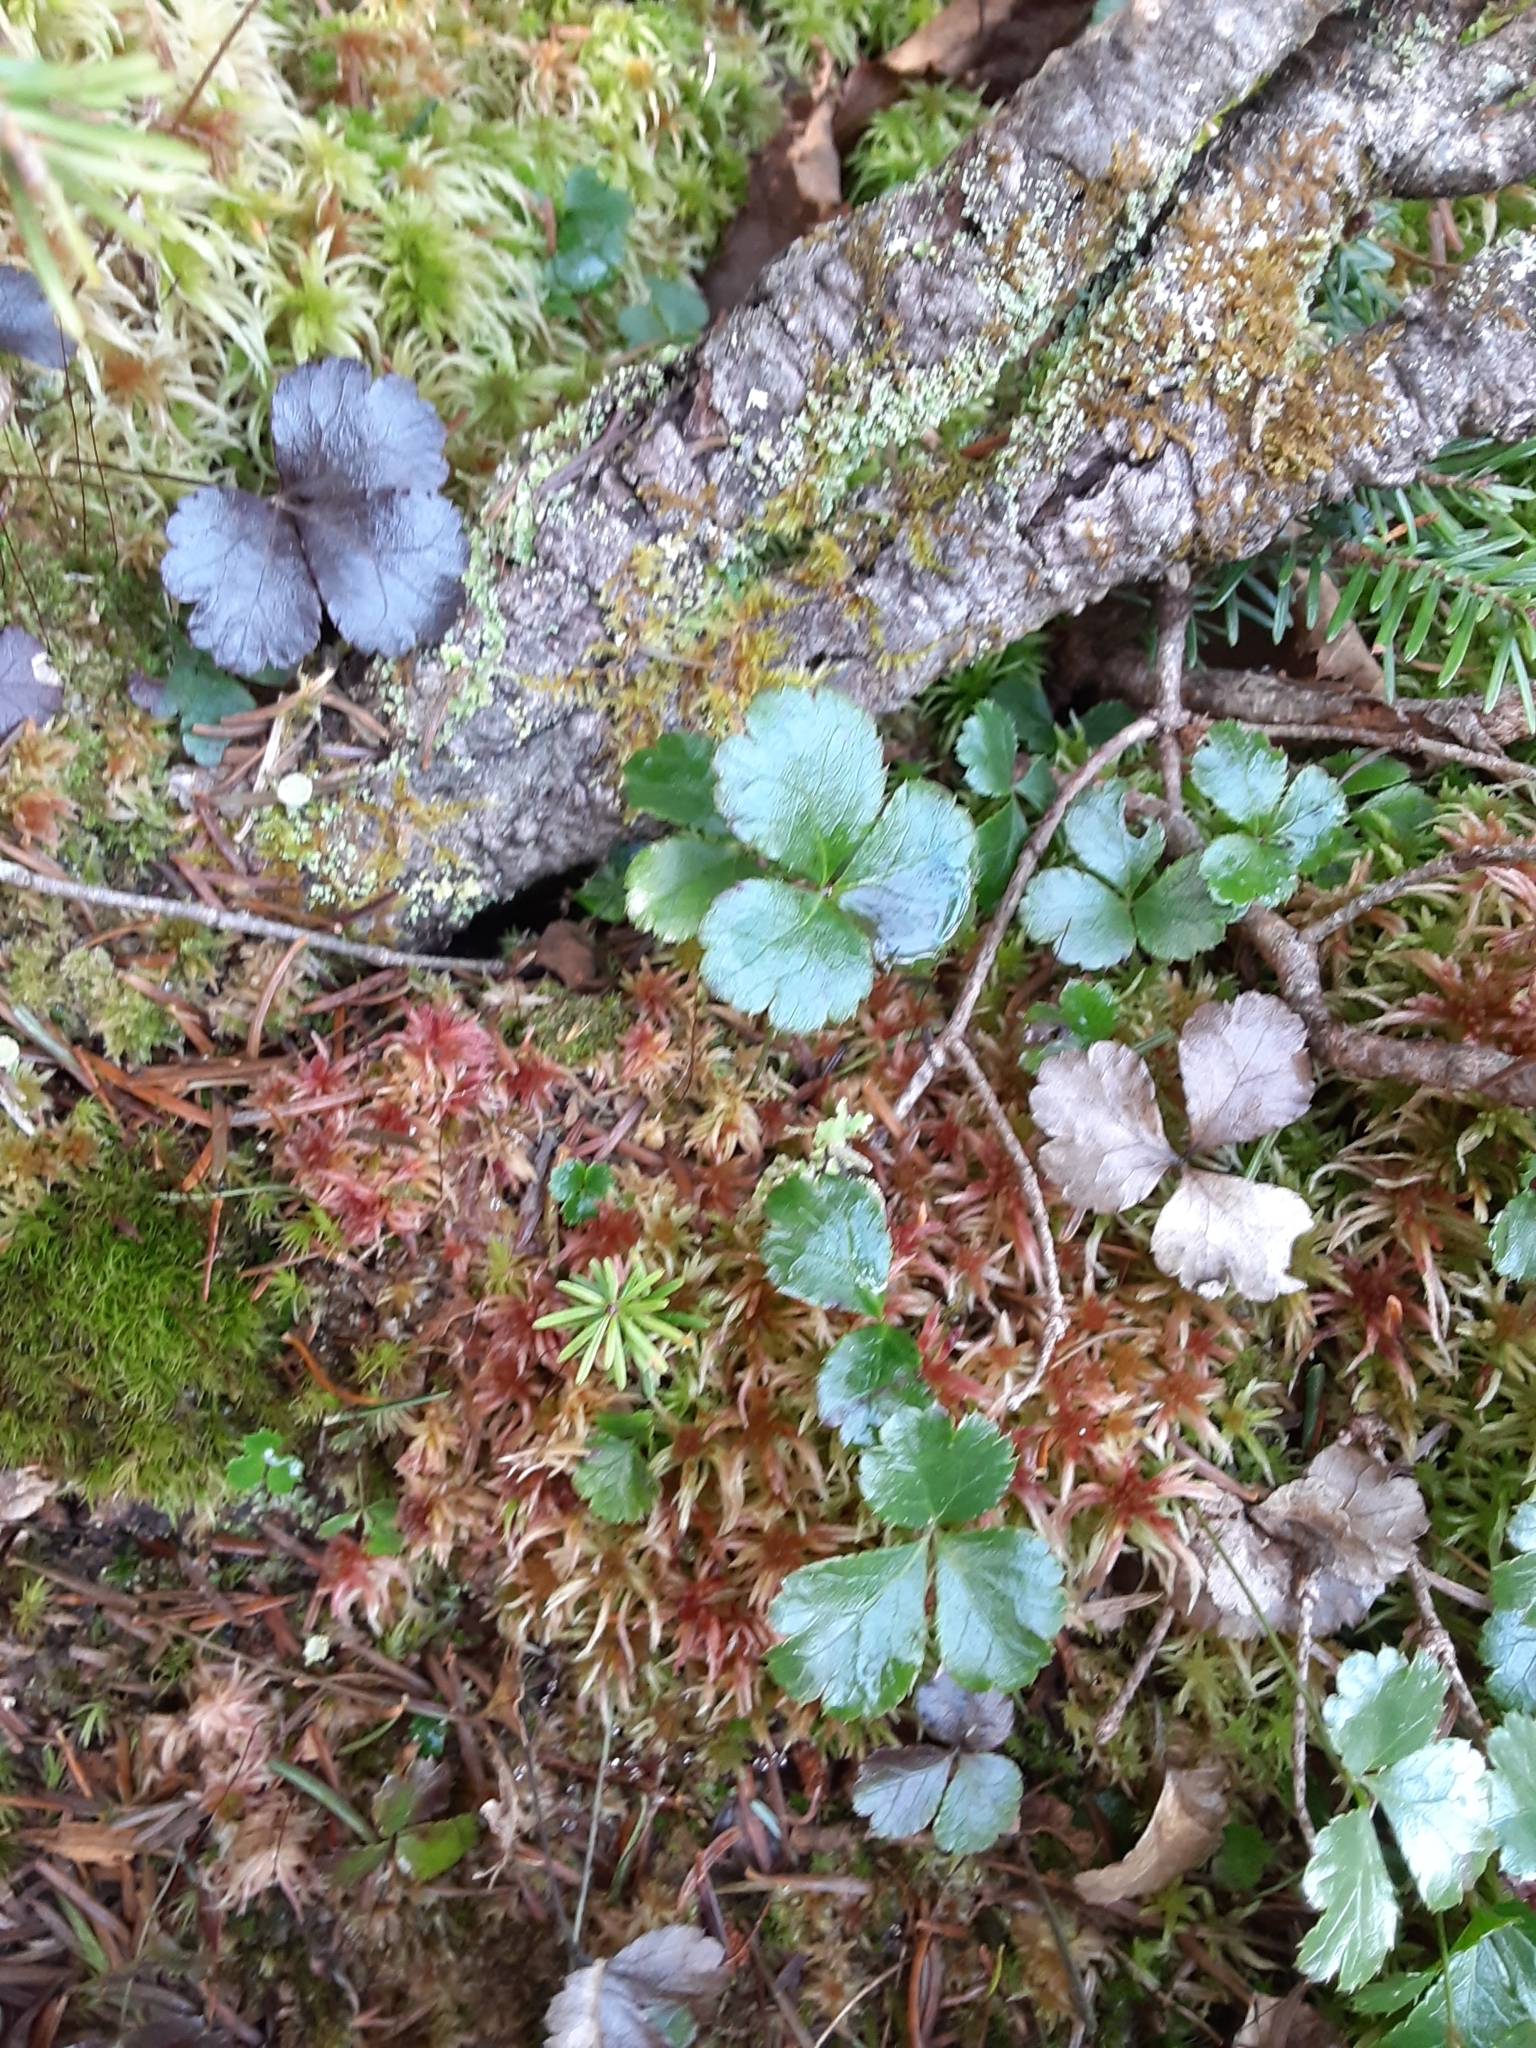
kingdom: Plantae
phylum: Tracheophyta
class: Magnoliopsida
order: Ranunculales
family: Ranunculaceae
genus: Coptis
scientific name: Coptis trifolia
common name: Canker-root
